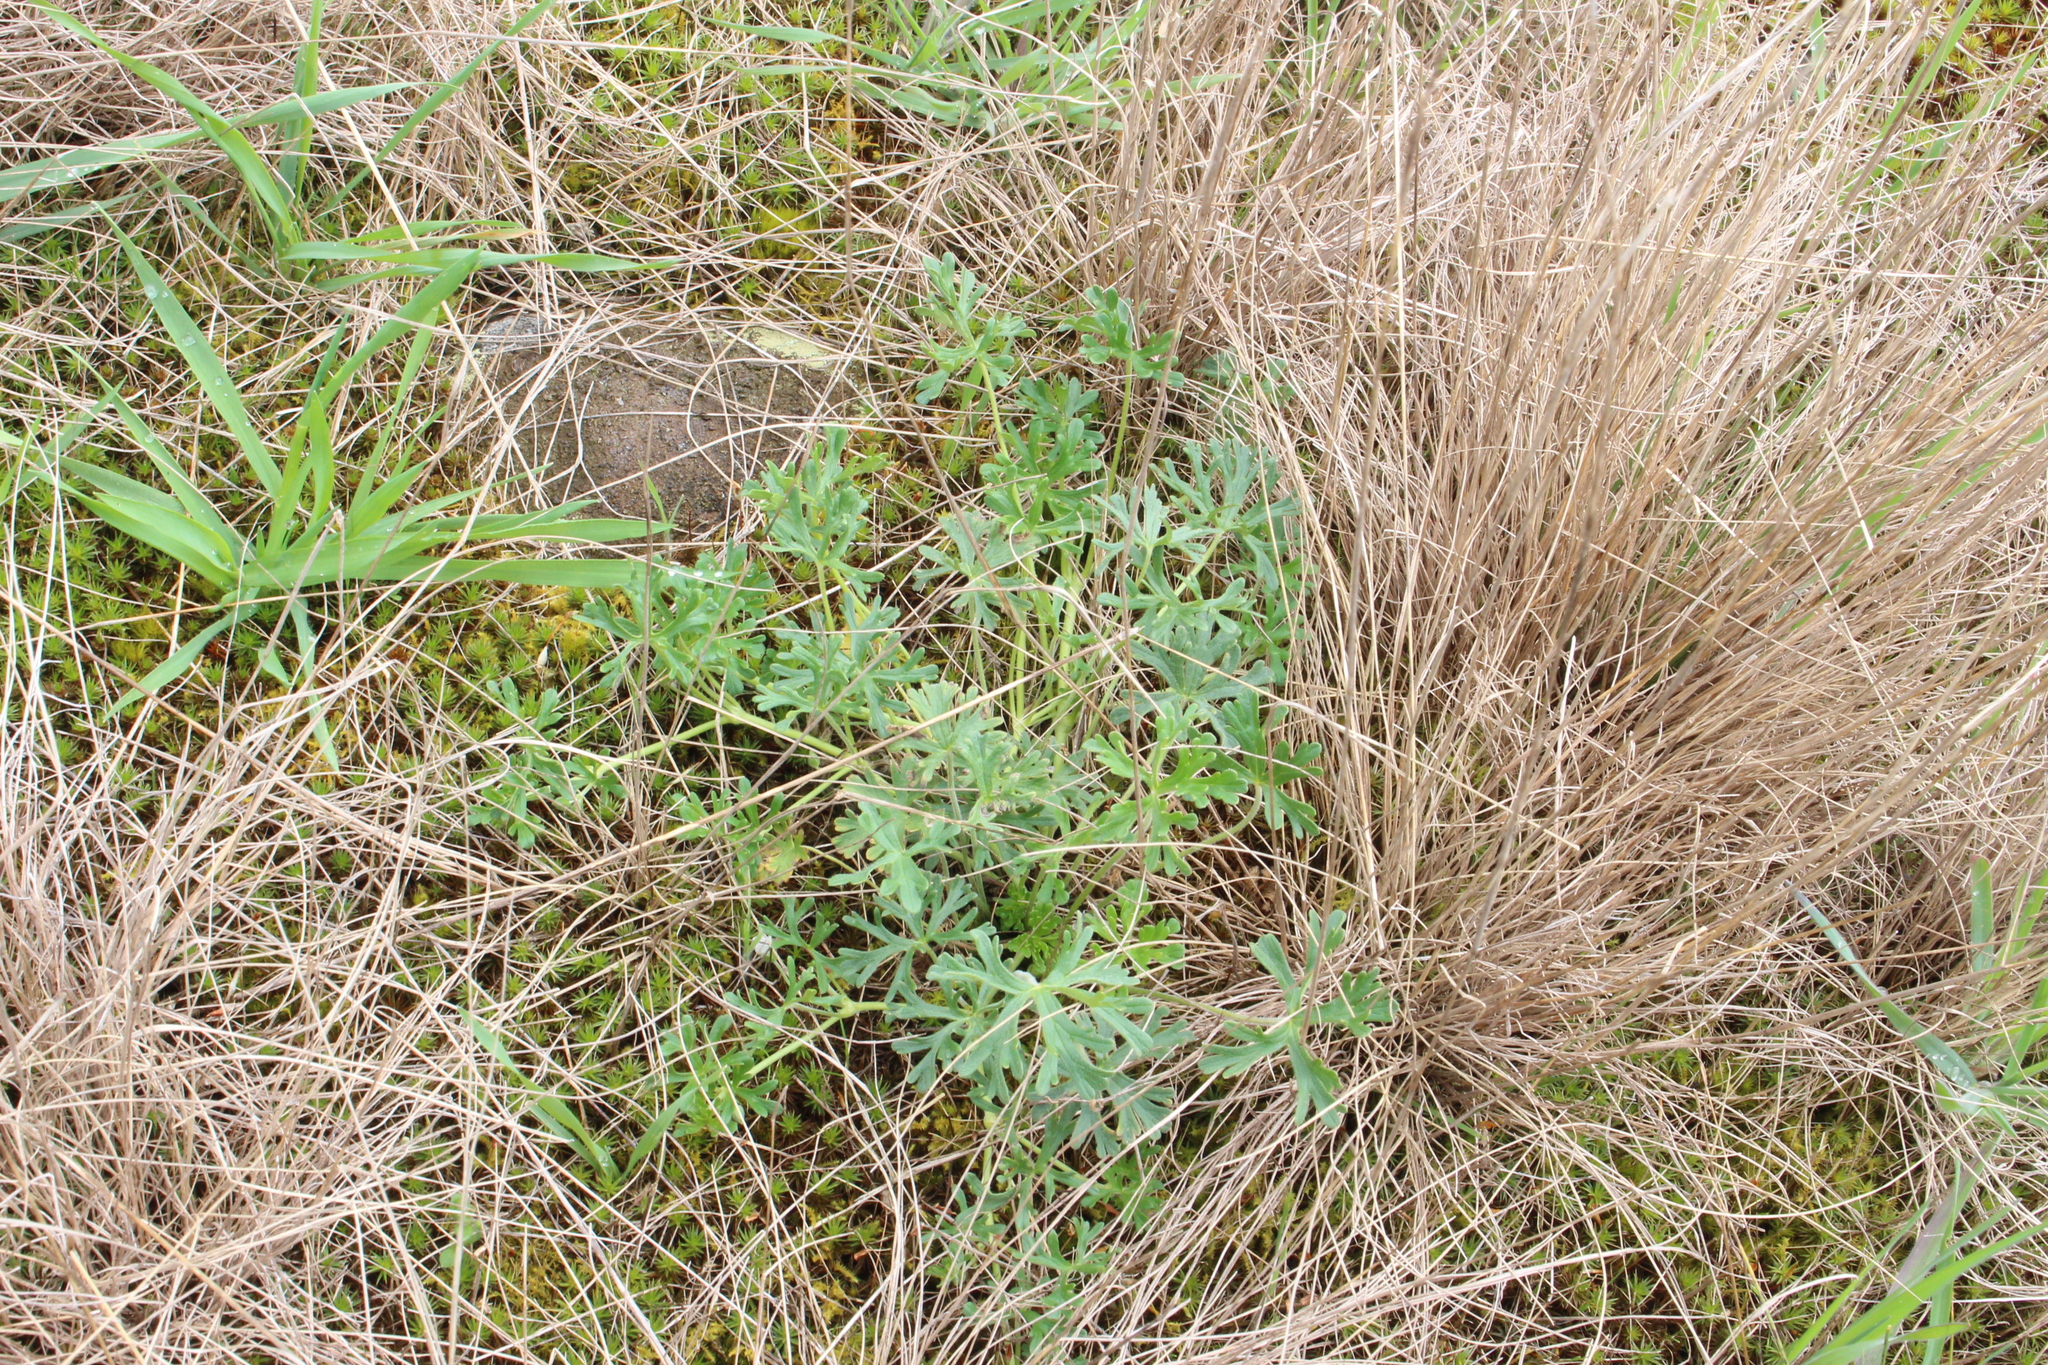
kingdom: Plantae
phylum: Tracheophyta
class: Magnoliopsida
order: Geraniales
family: Geraniaceae
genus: Geranium
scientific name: Geranium retrorsum
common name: New zealand geranium
